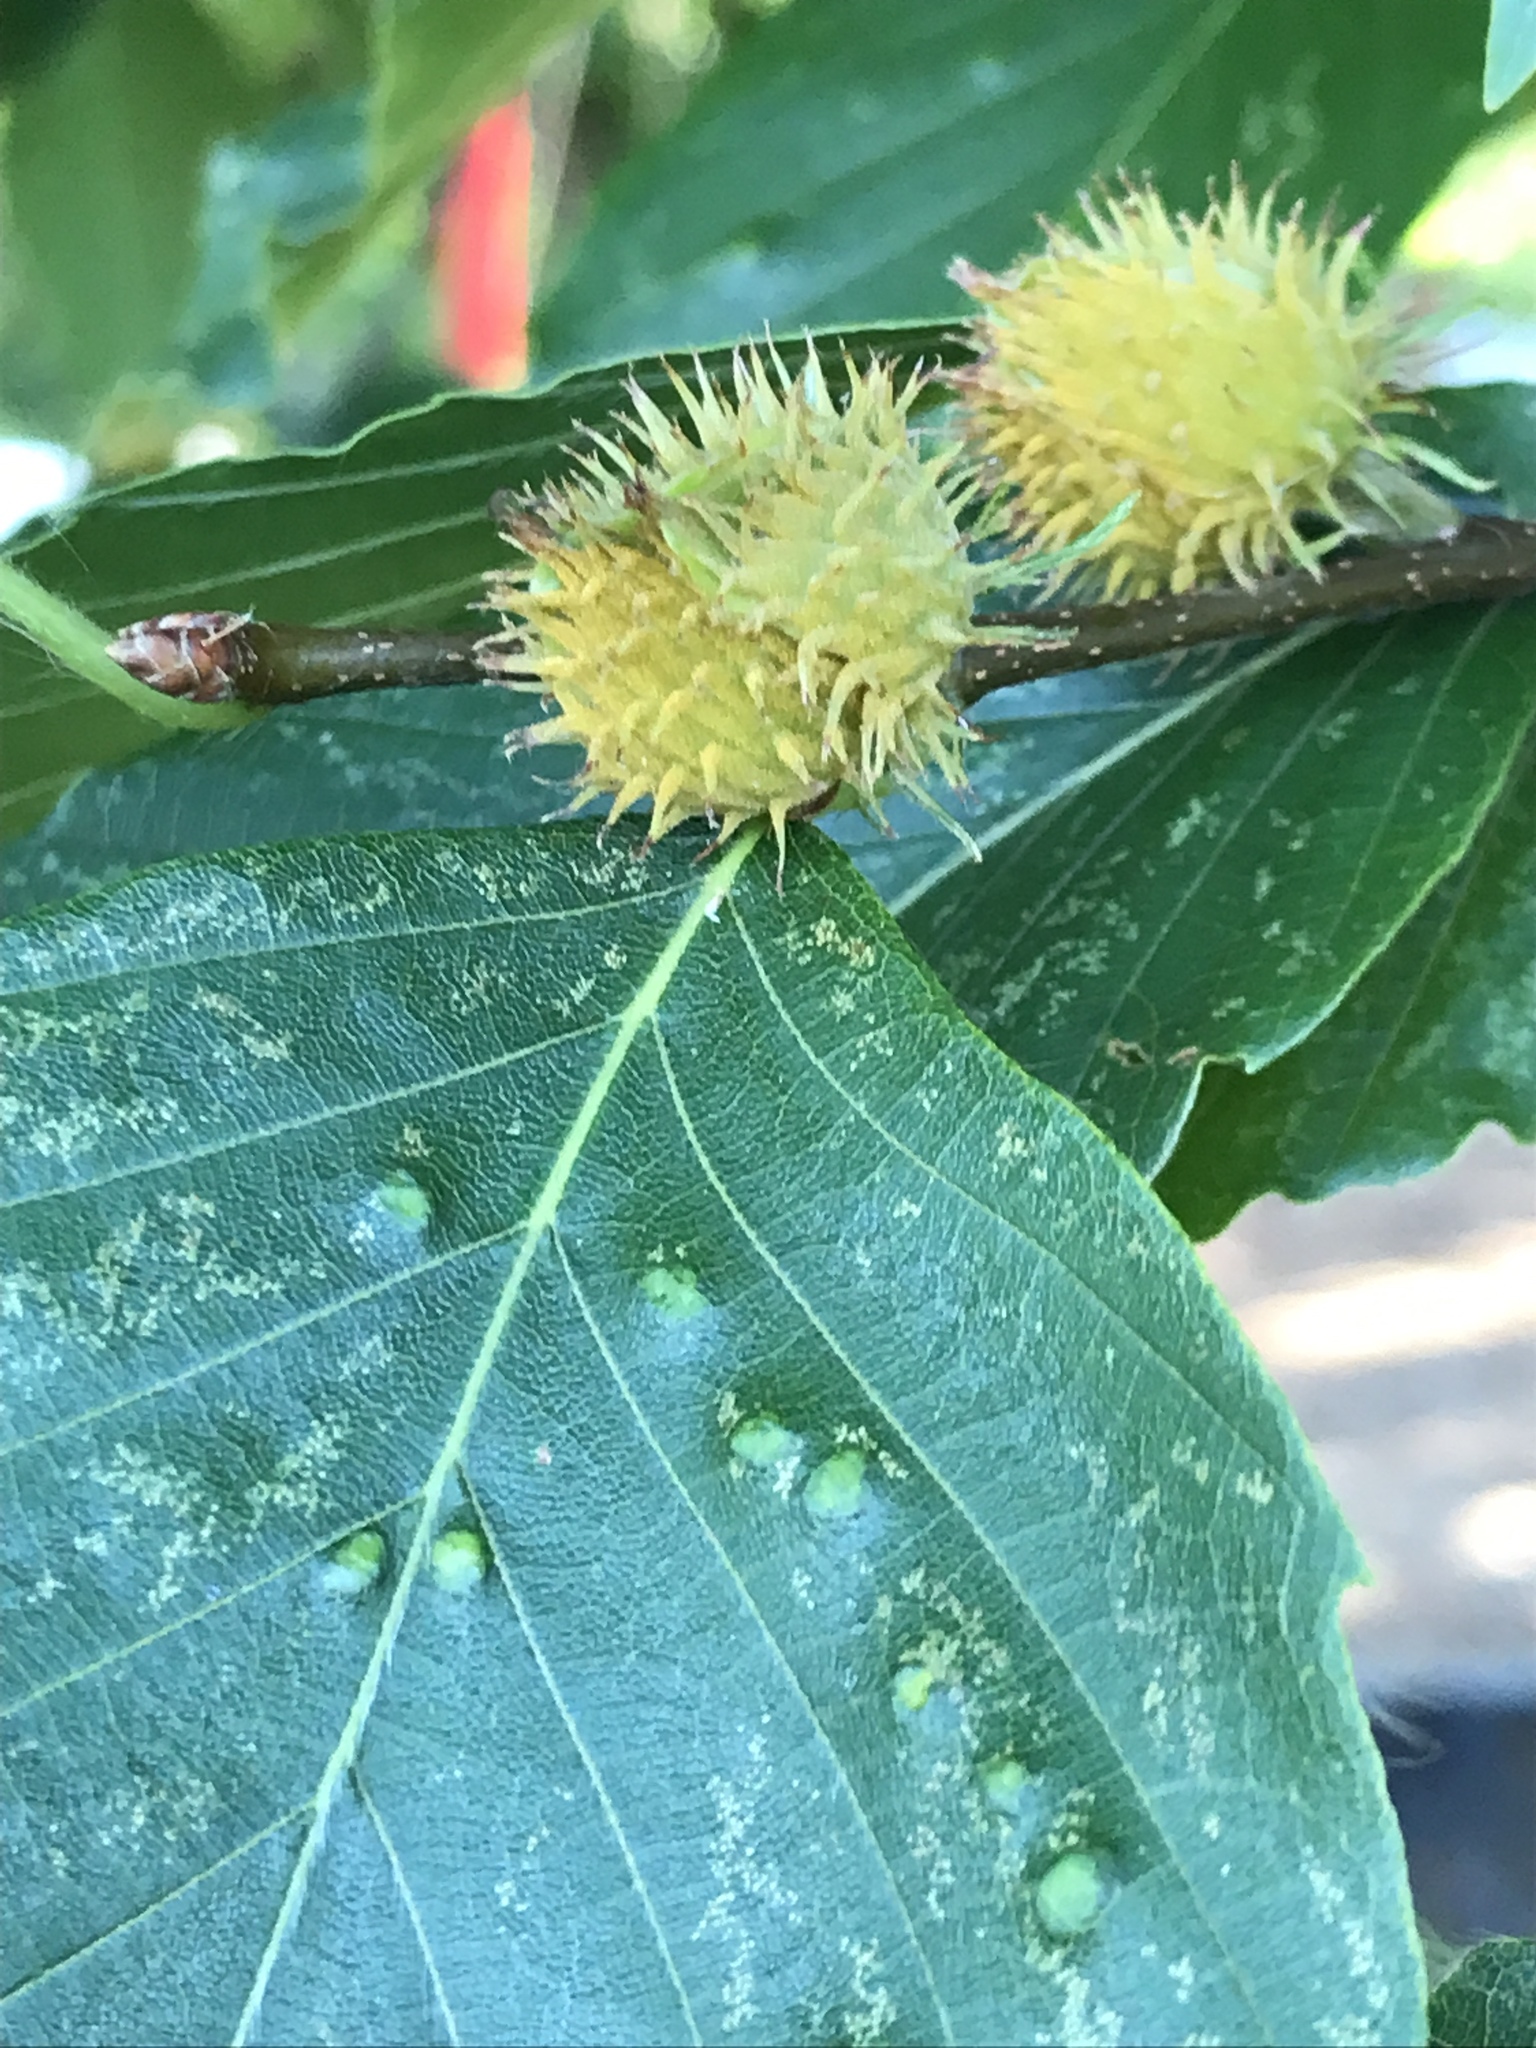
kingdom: Plantae
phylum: Tracheophyta
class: Magnoliopsida
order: Fagales
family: Fagaceae
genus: Fagus
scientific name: Fagus grandifolia
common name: American beech
